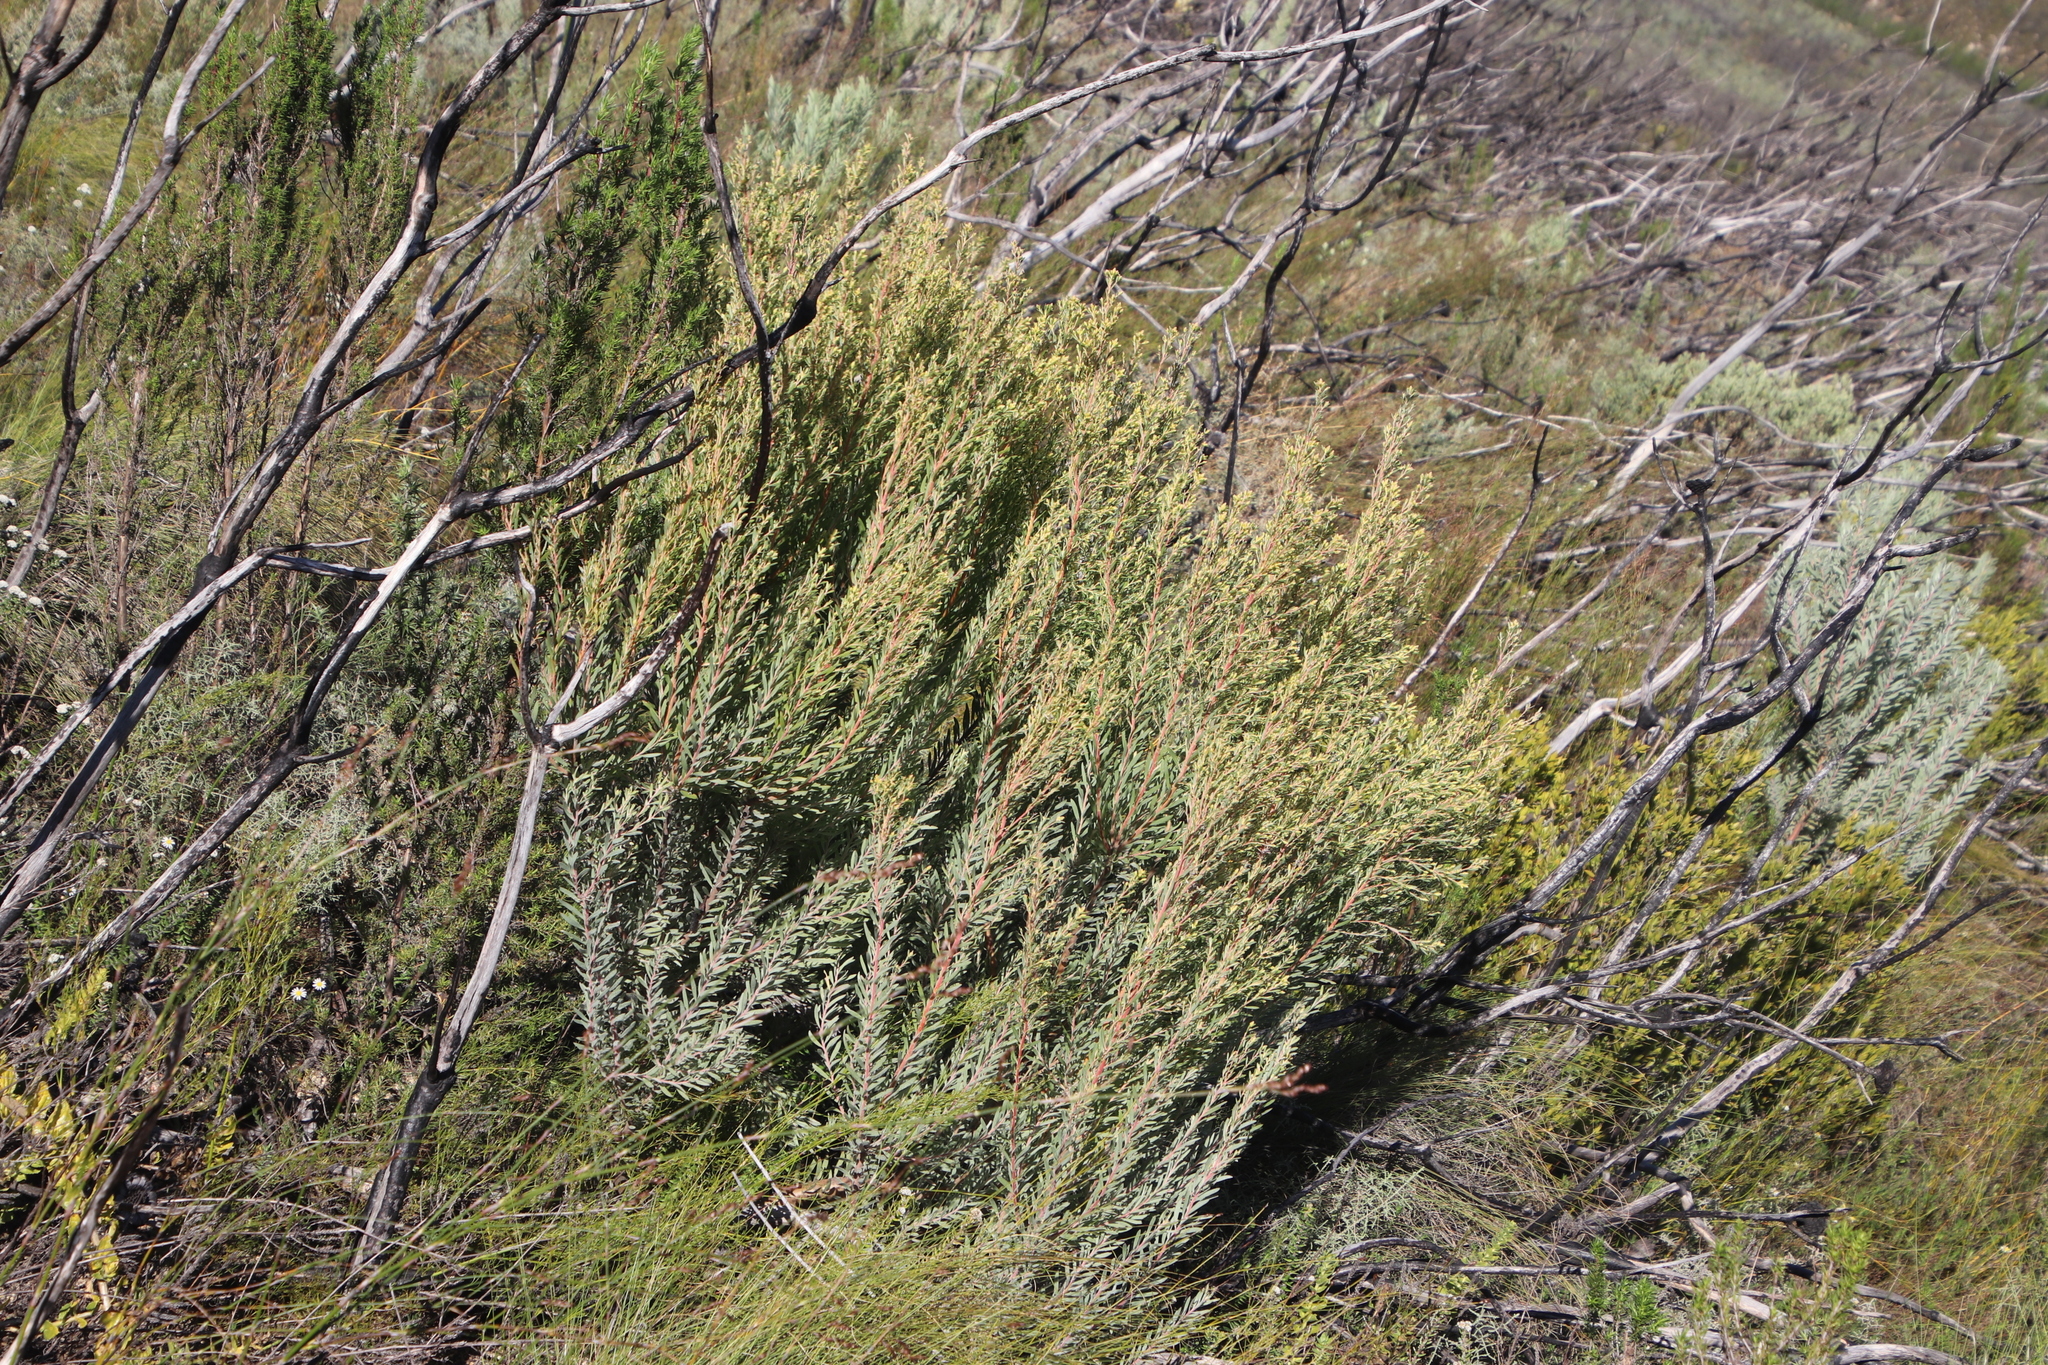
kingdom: Plantae
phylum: Tracheophyta
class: Magnoliopsida
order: Proteales
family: Proteaceae
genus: Leucadendron
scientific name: Leucadendron rubrum
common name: Spinning top
